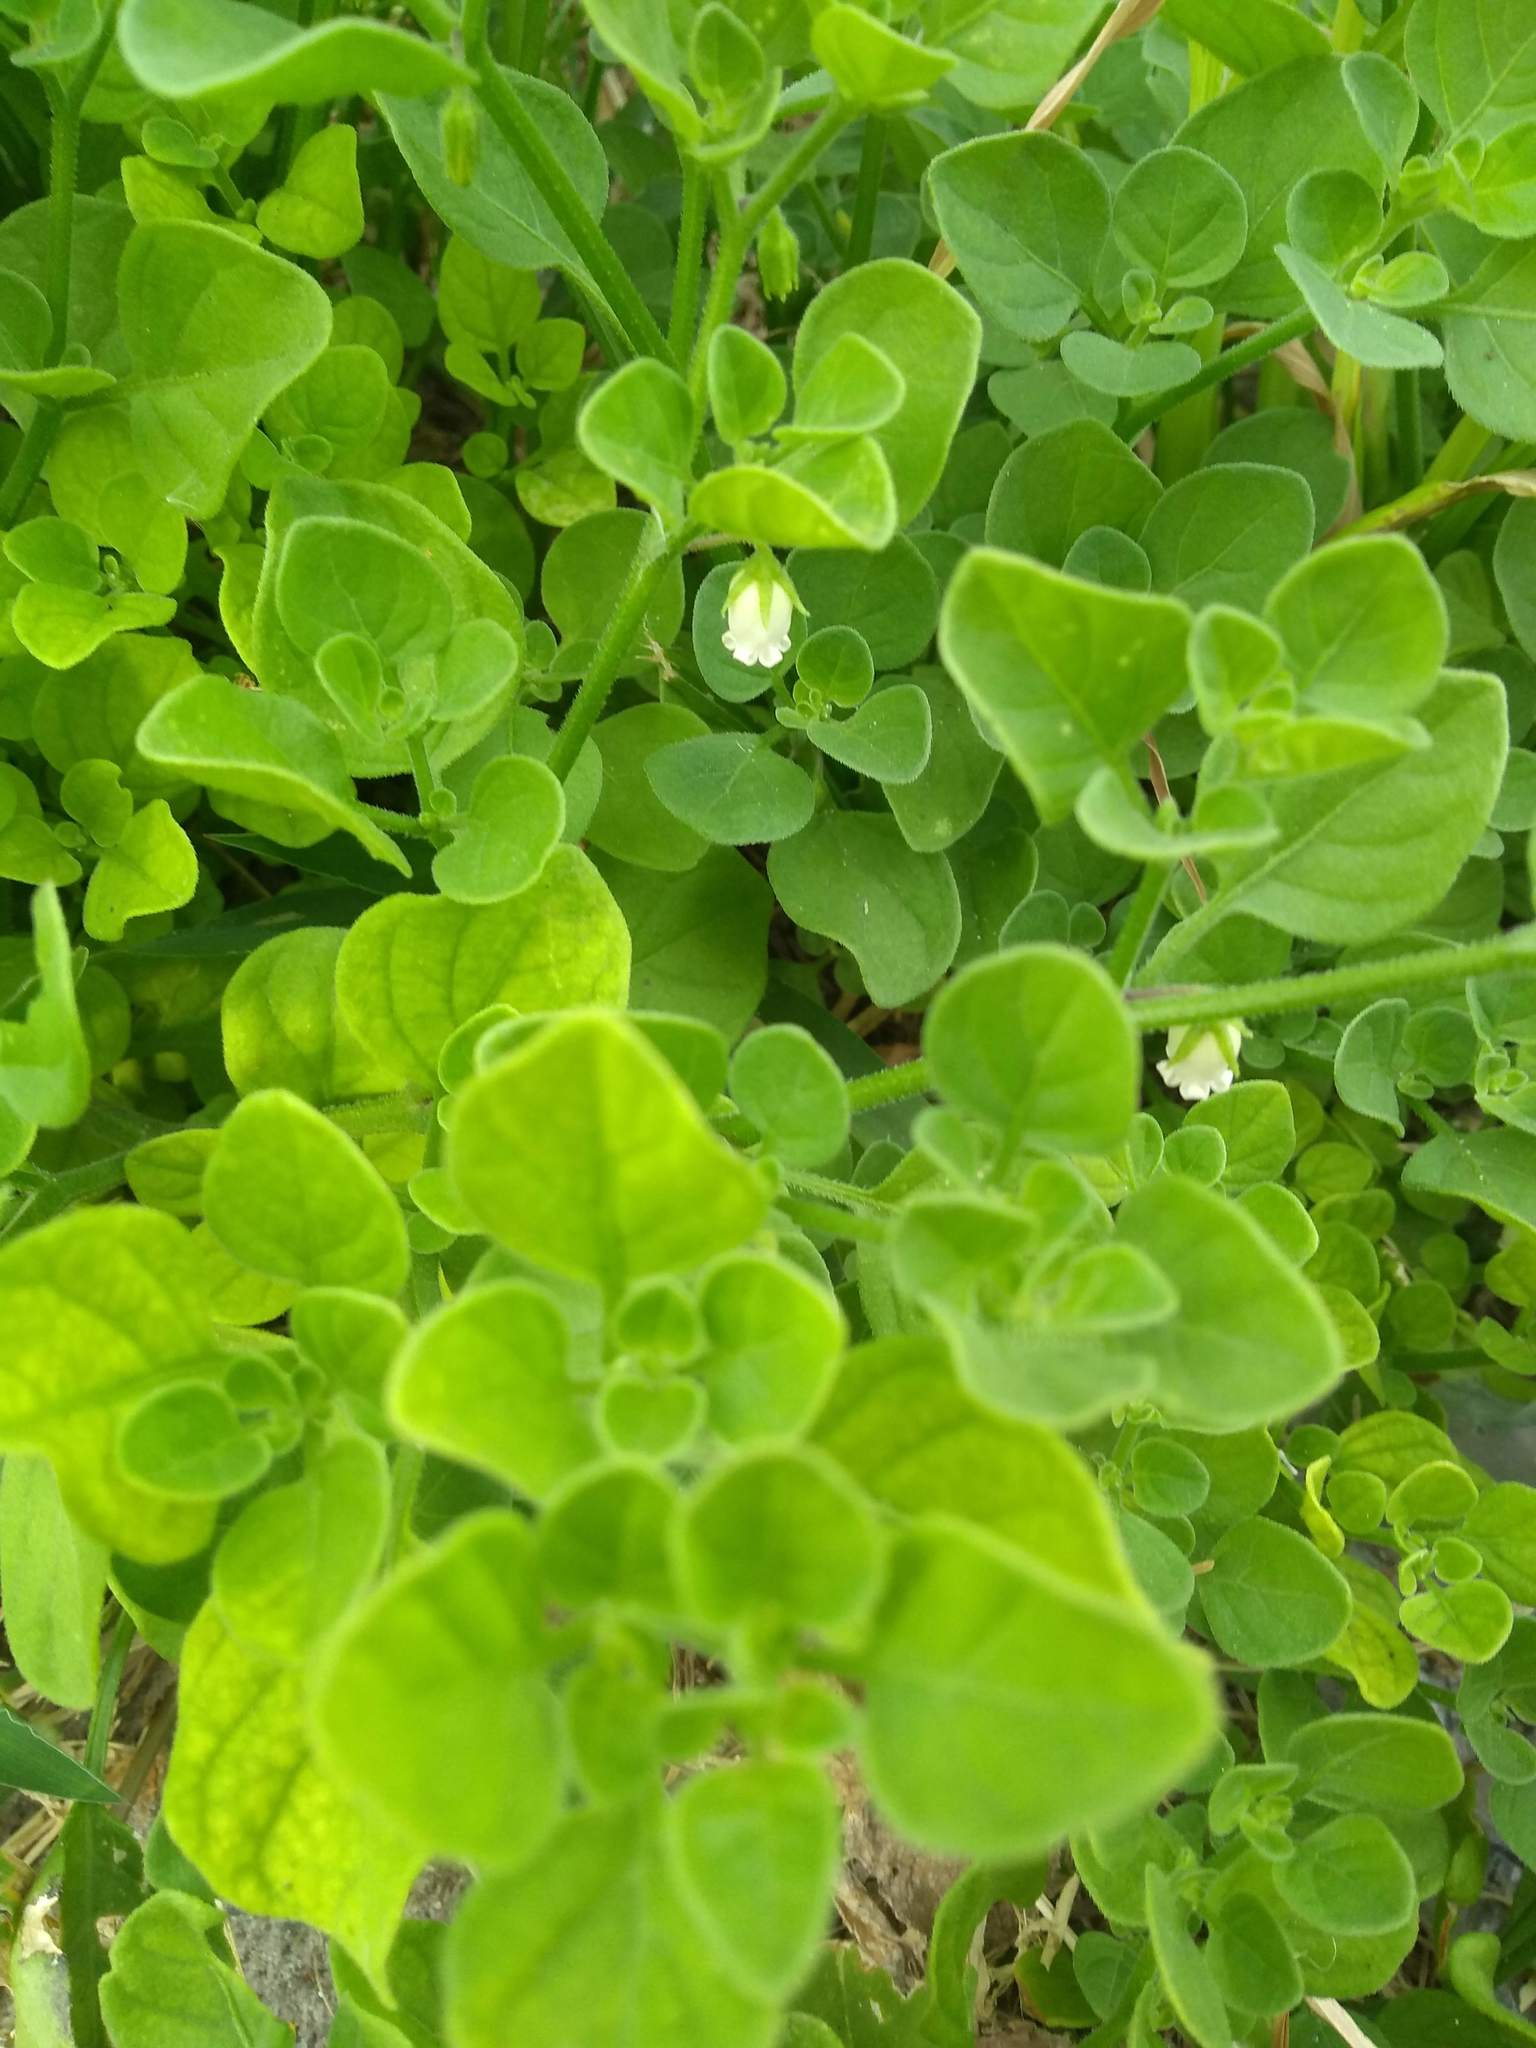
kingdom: Plantae
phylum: Tracheophyta
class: Magnoliopsida
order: Solanales
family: Solanaceae
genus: Salpichroa
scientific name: Salpichroa origanifolia
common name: Lily-of-the-valley-vine
